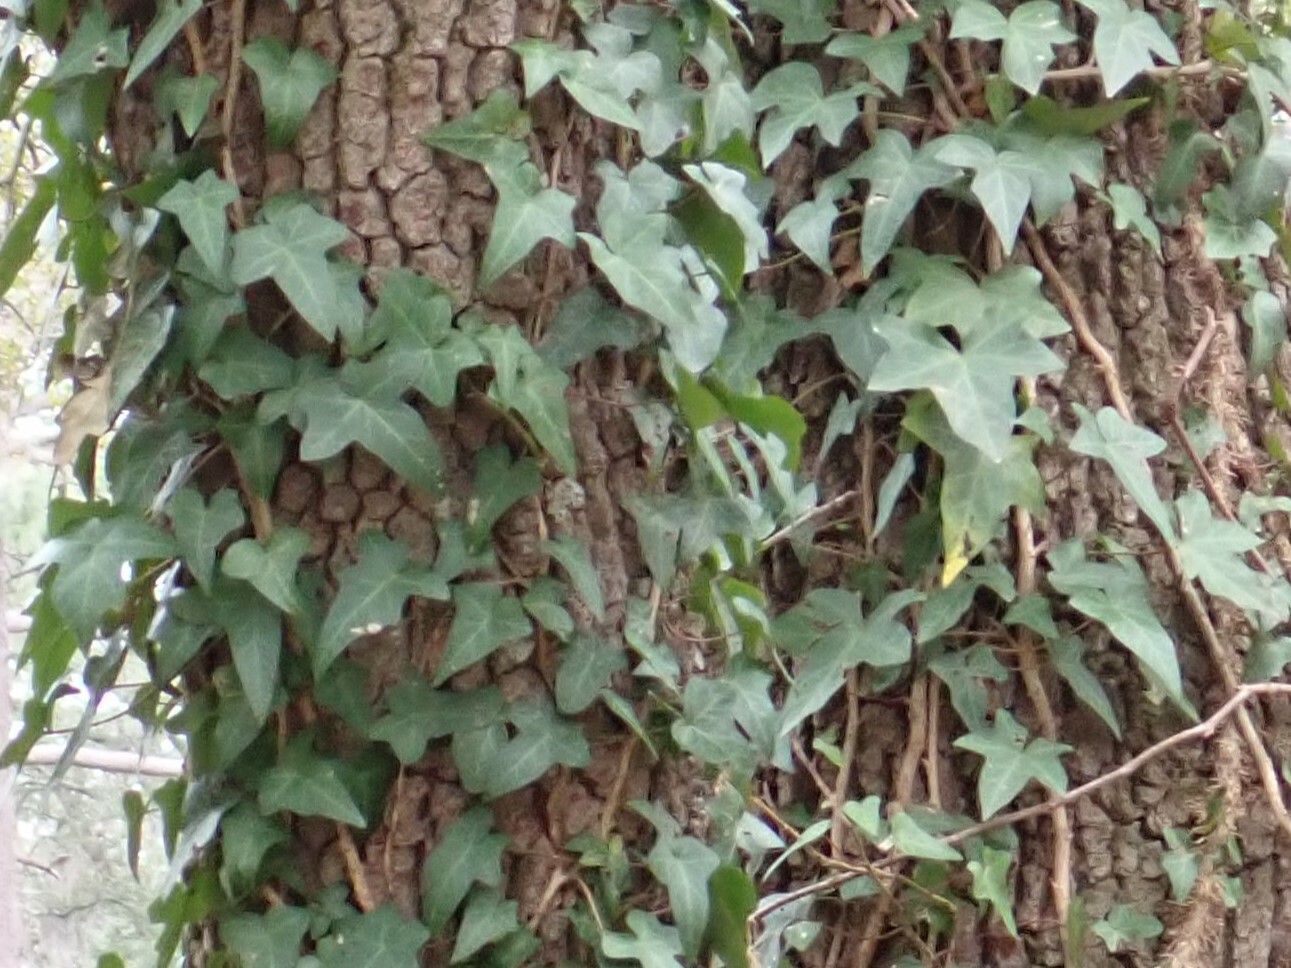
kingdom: Plantae
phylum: Tracheophyta
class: Magnoliopsida
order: Apiales
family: Araliaceae
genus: Hedera
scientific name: Hedera helix
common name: Ivy
